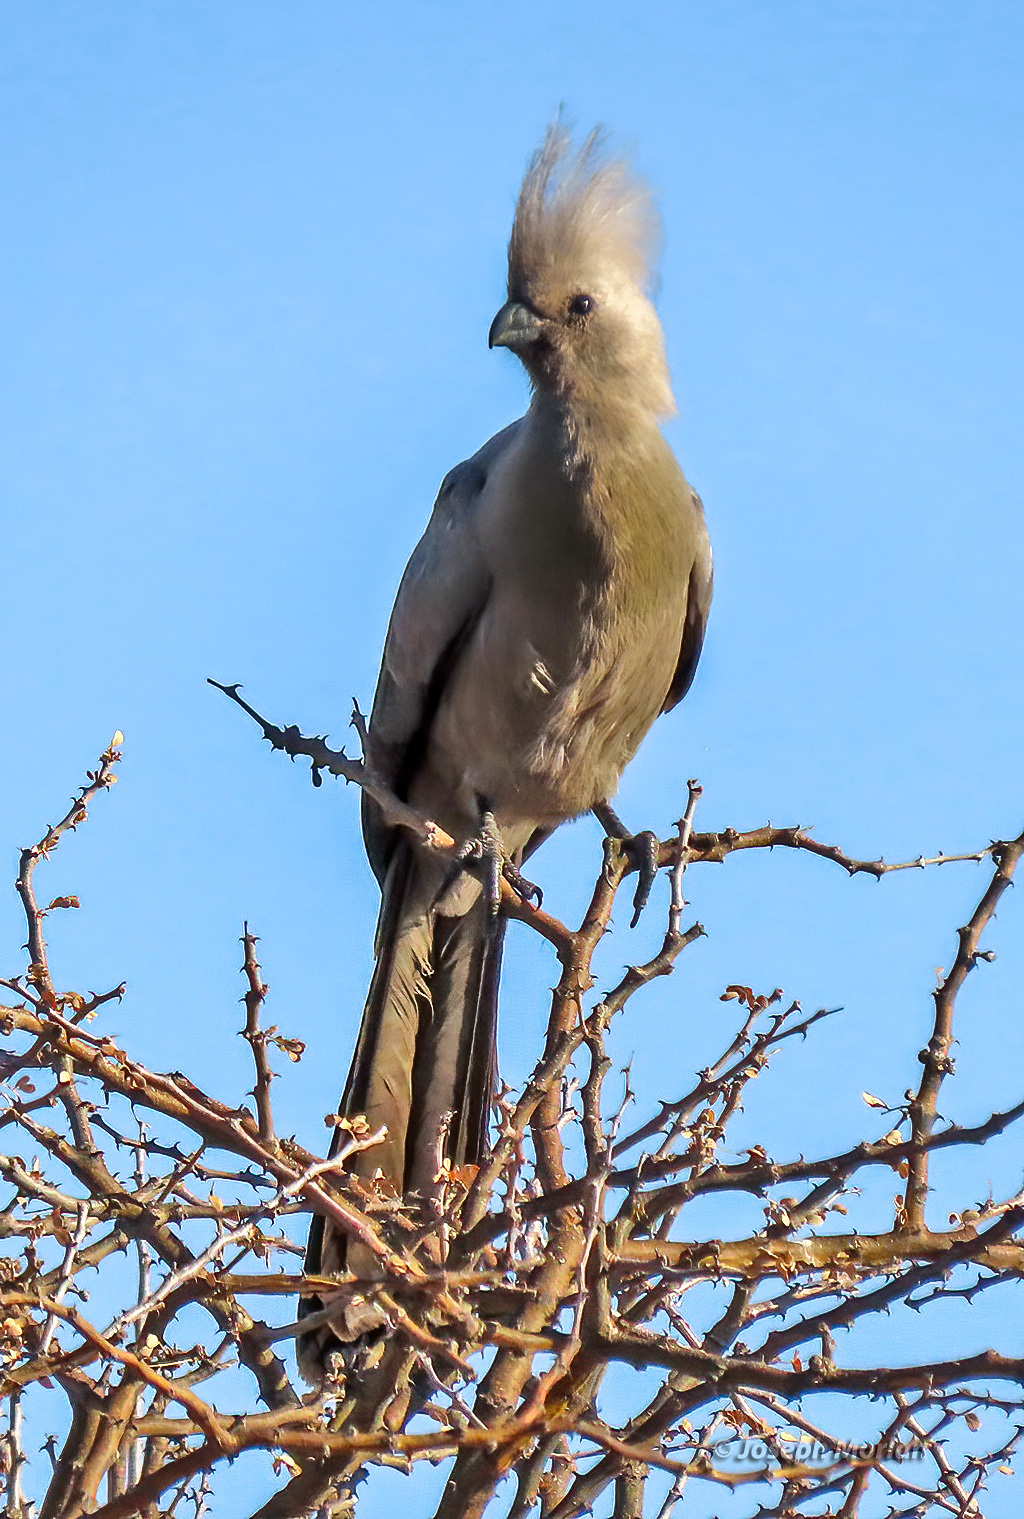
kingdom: Animalia
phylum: Chordata
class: Aves
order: Musophagiformes
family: Musophagidae
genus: Corythaixoides
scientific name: Corythaixoides concolor
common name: Grey go-away-bird
